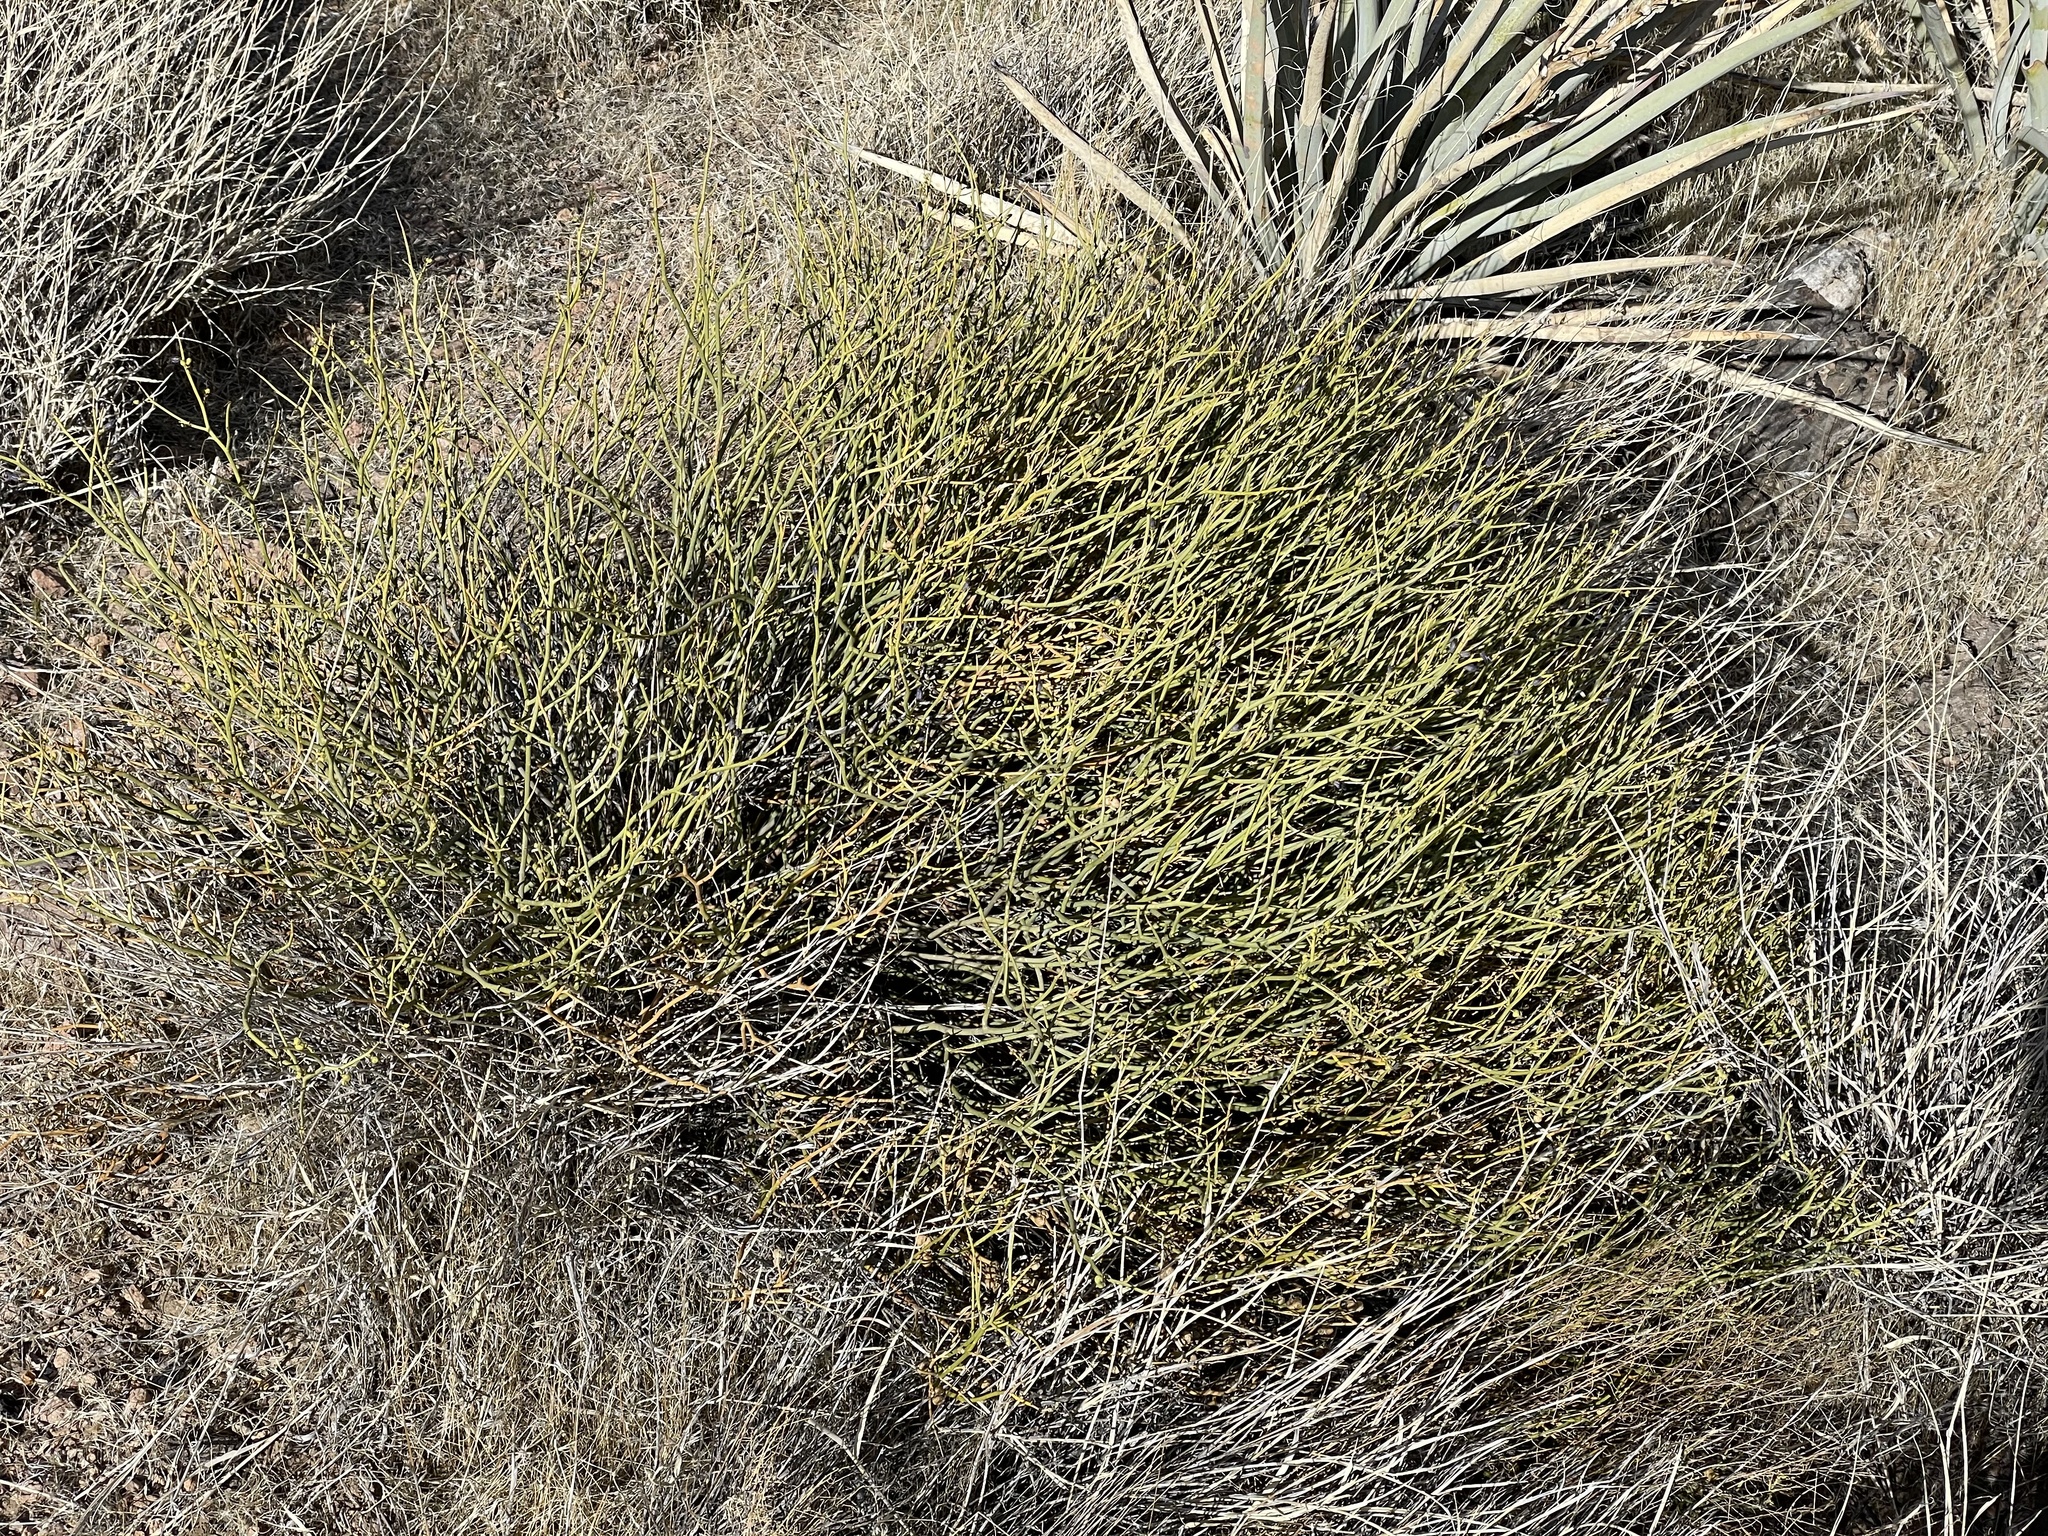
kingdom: Plantae
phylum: Tracheophyta
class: Magnoliopsida
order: Sapindales
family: Rutaceae
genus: Thamnosma
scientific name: Thamnosma montana
